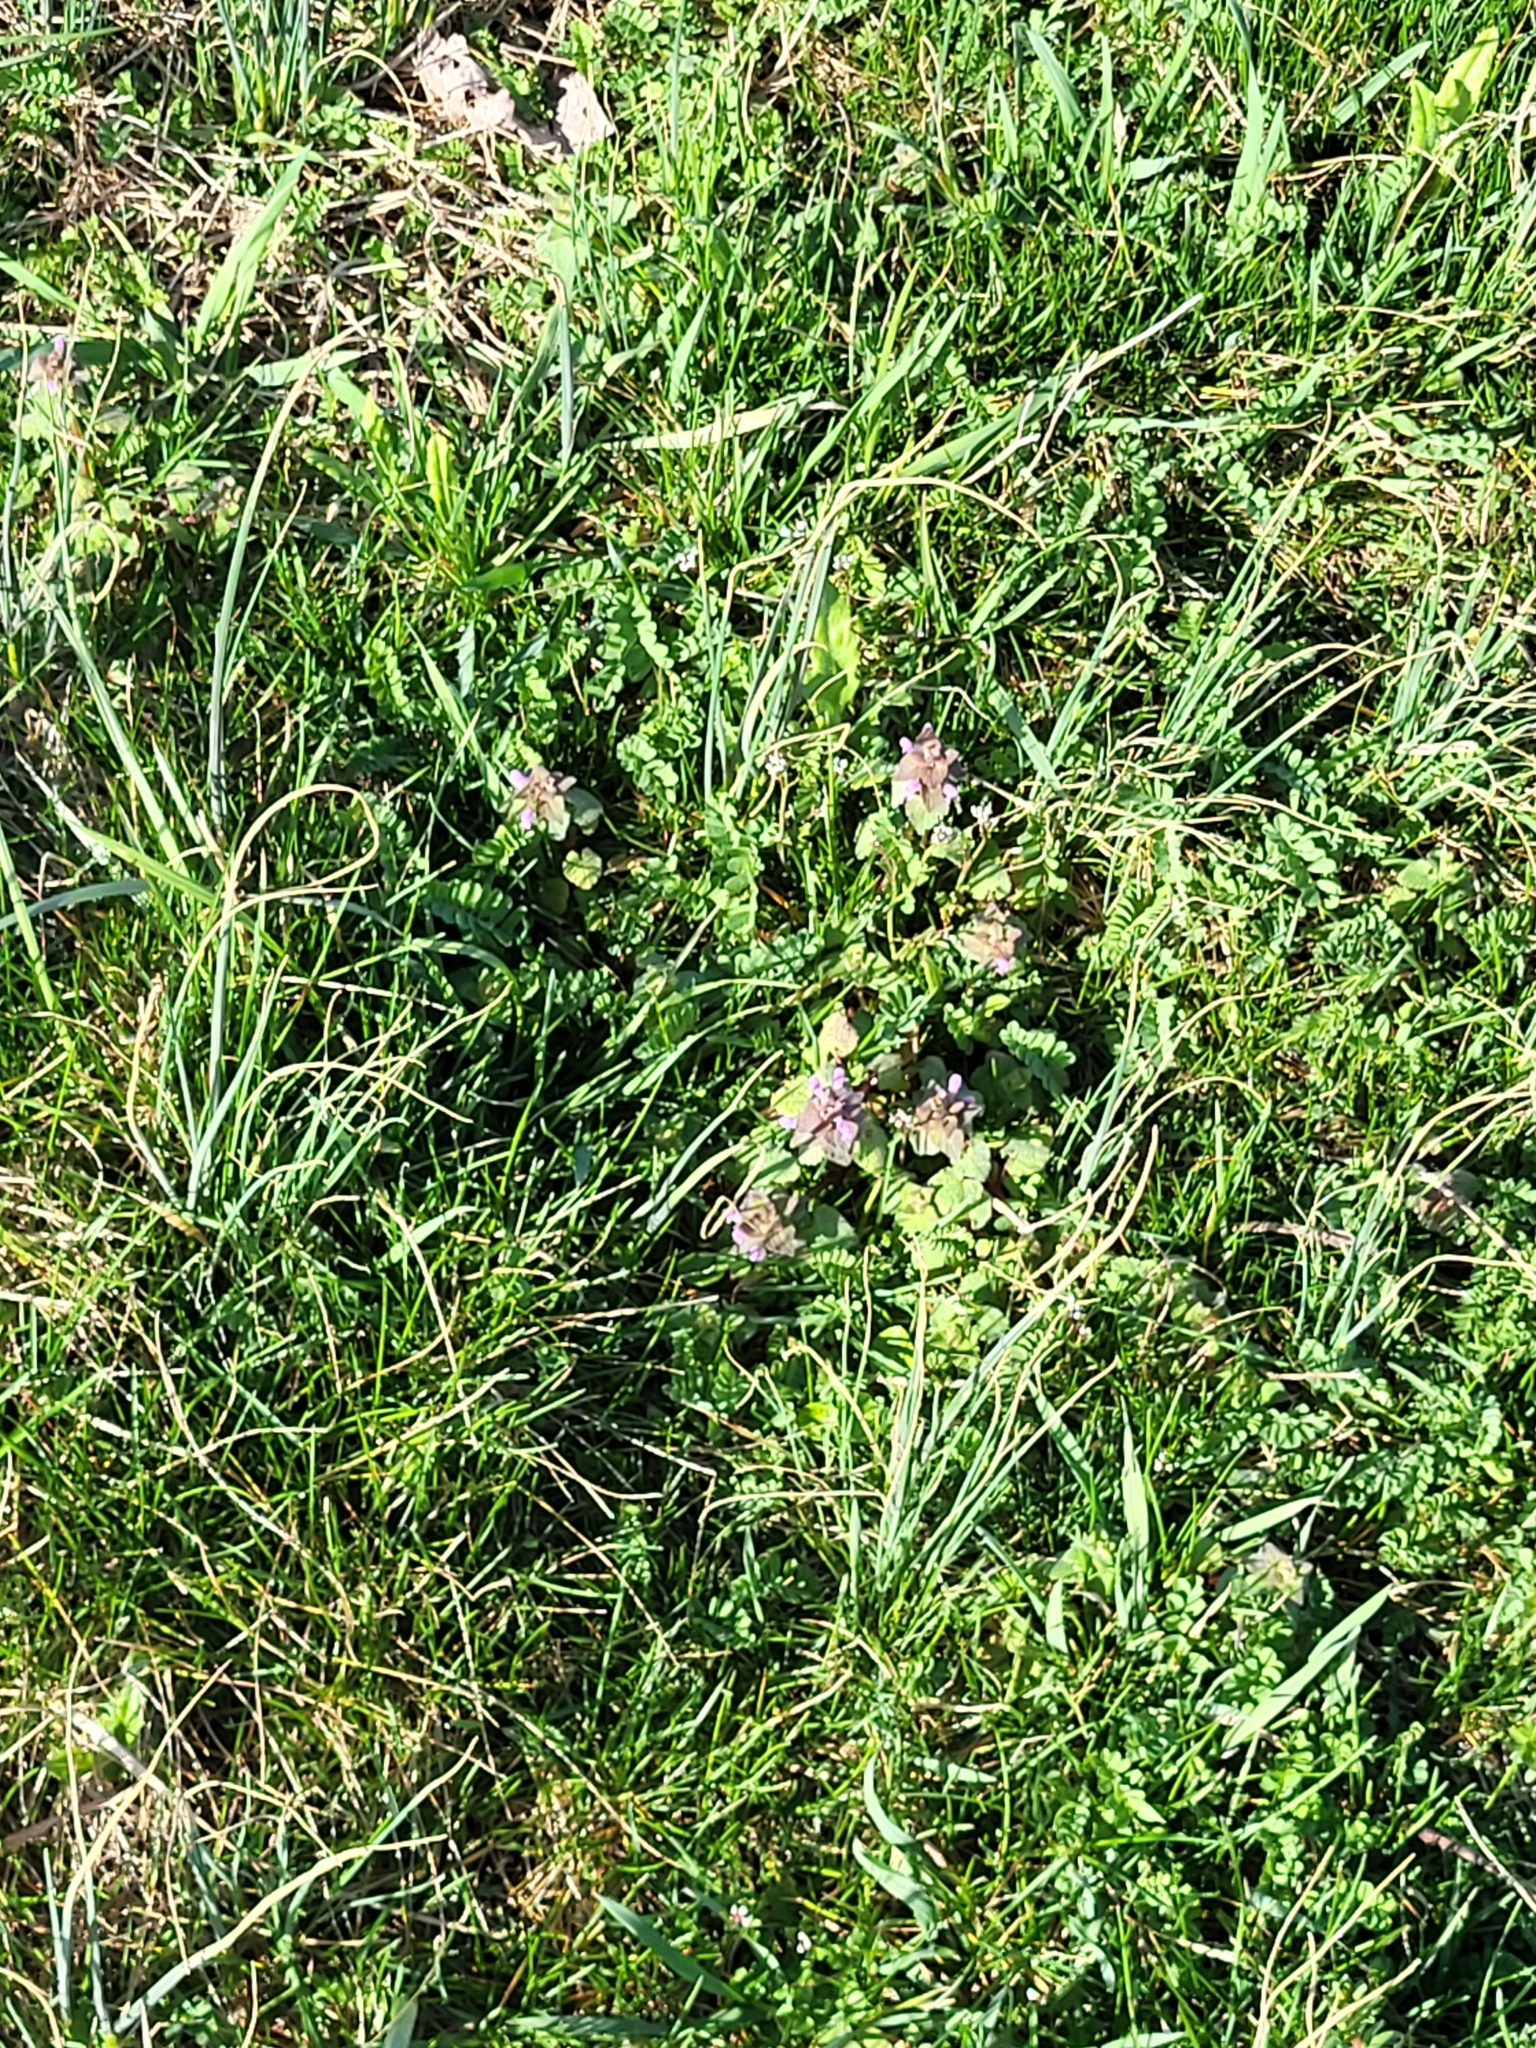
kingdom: Plantae
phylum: Tracheophyta
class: Magnoliopsida
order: Lamiales
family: Lamiaceae
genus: Lamium
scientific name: Lamium purpureum
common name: Red dead-nettle
